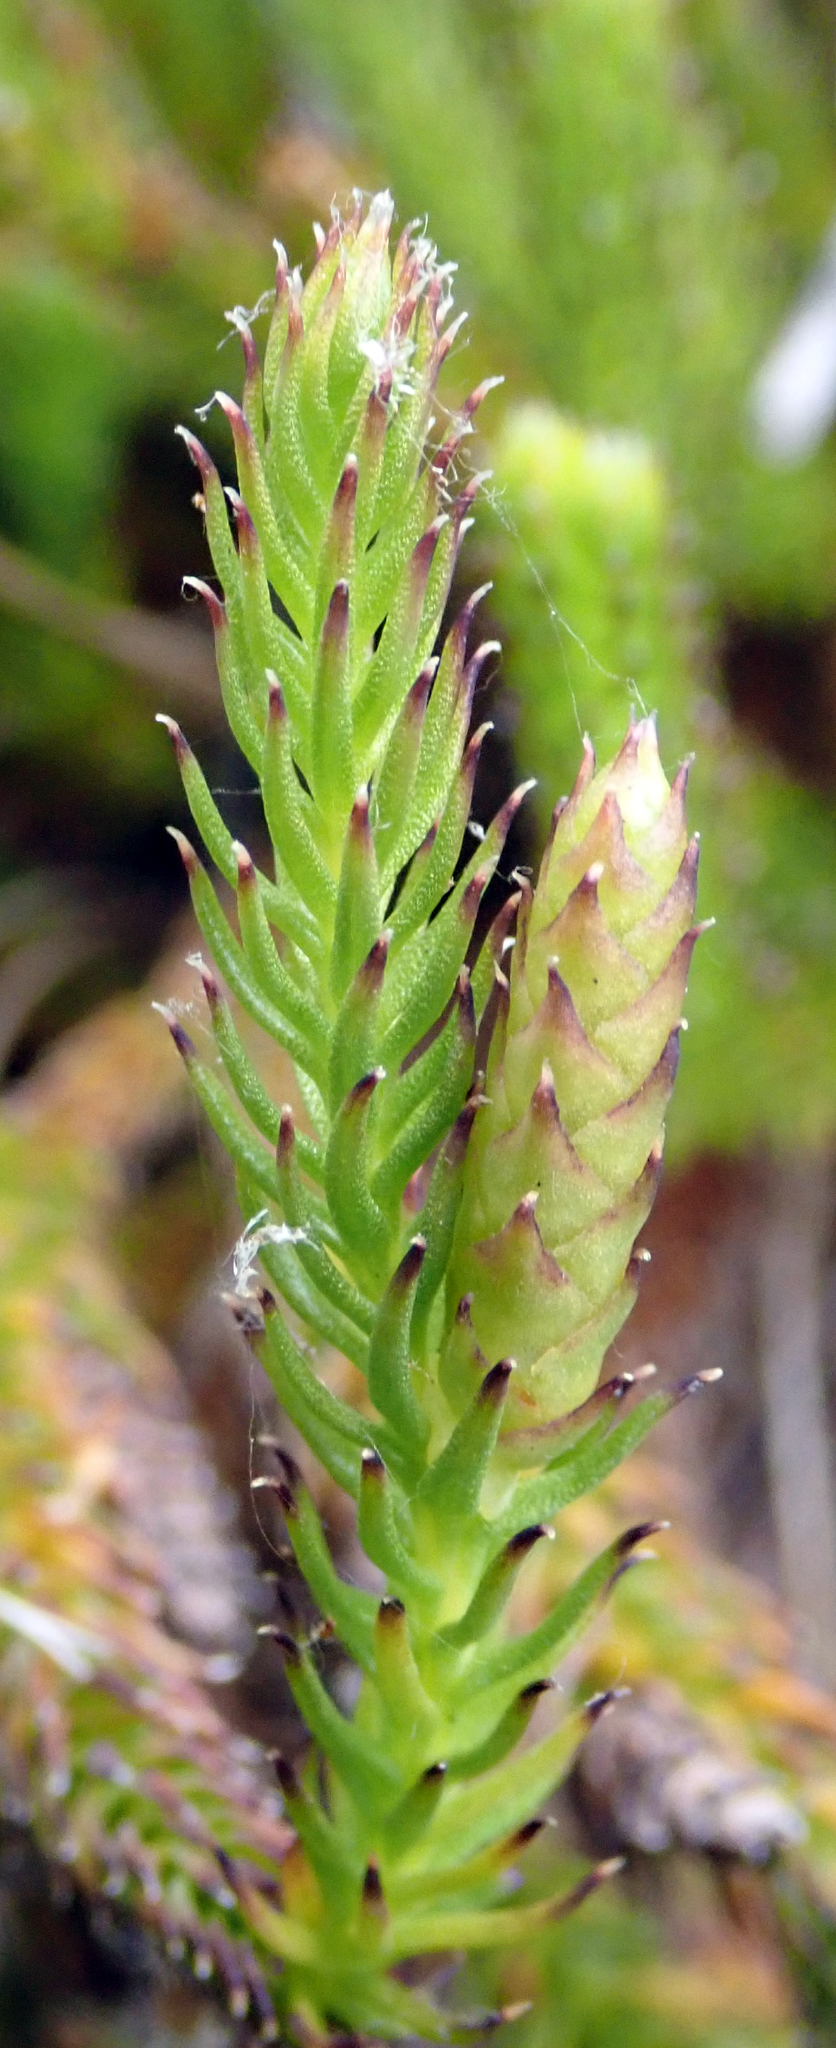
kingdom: Plantae
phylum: Tracheophyta
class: Lycopodiopsida
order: Lycopodiales
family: Lycopodiaceae
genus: Lateristachys
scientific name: Lateristachys lateralis
